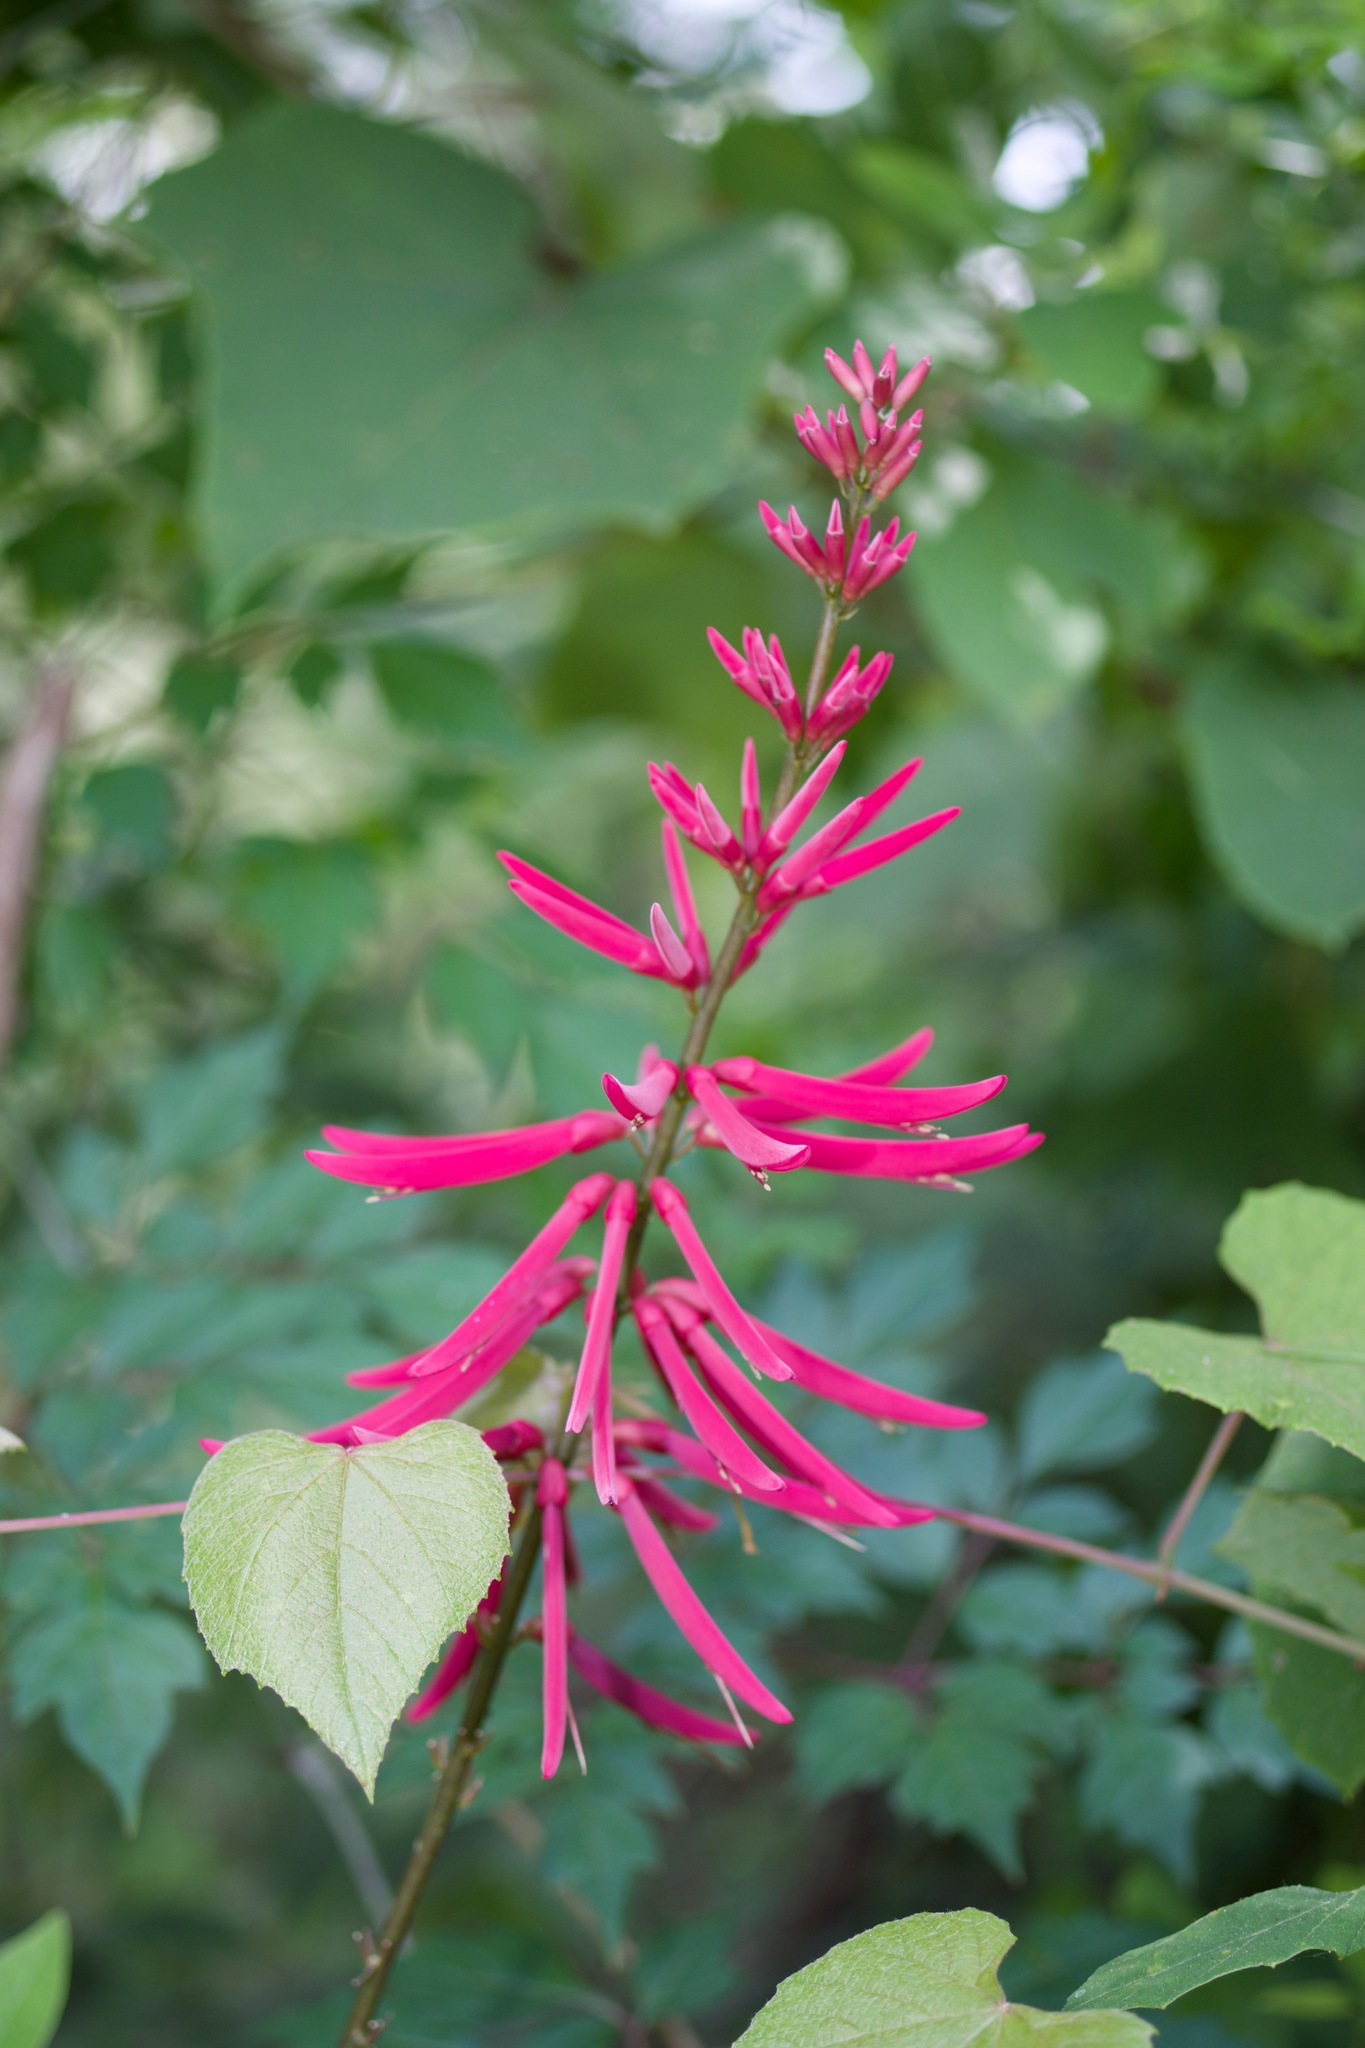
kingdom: Plantae
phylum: Tracheophyta
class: Magnoliopsida
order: Fabales
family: Fabaceae
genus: Erythrina
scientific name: Erythrina herbacea
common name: Coral-bean
